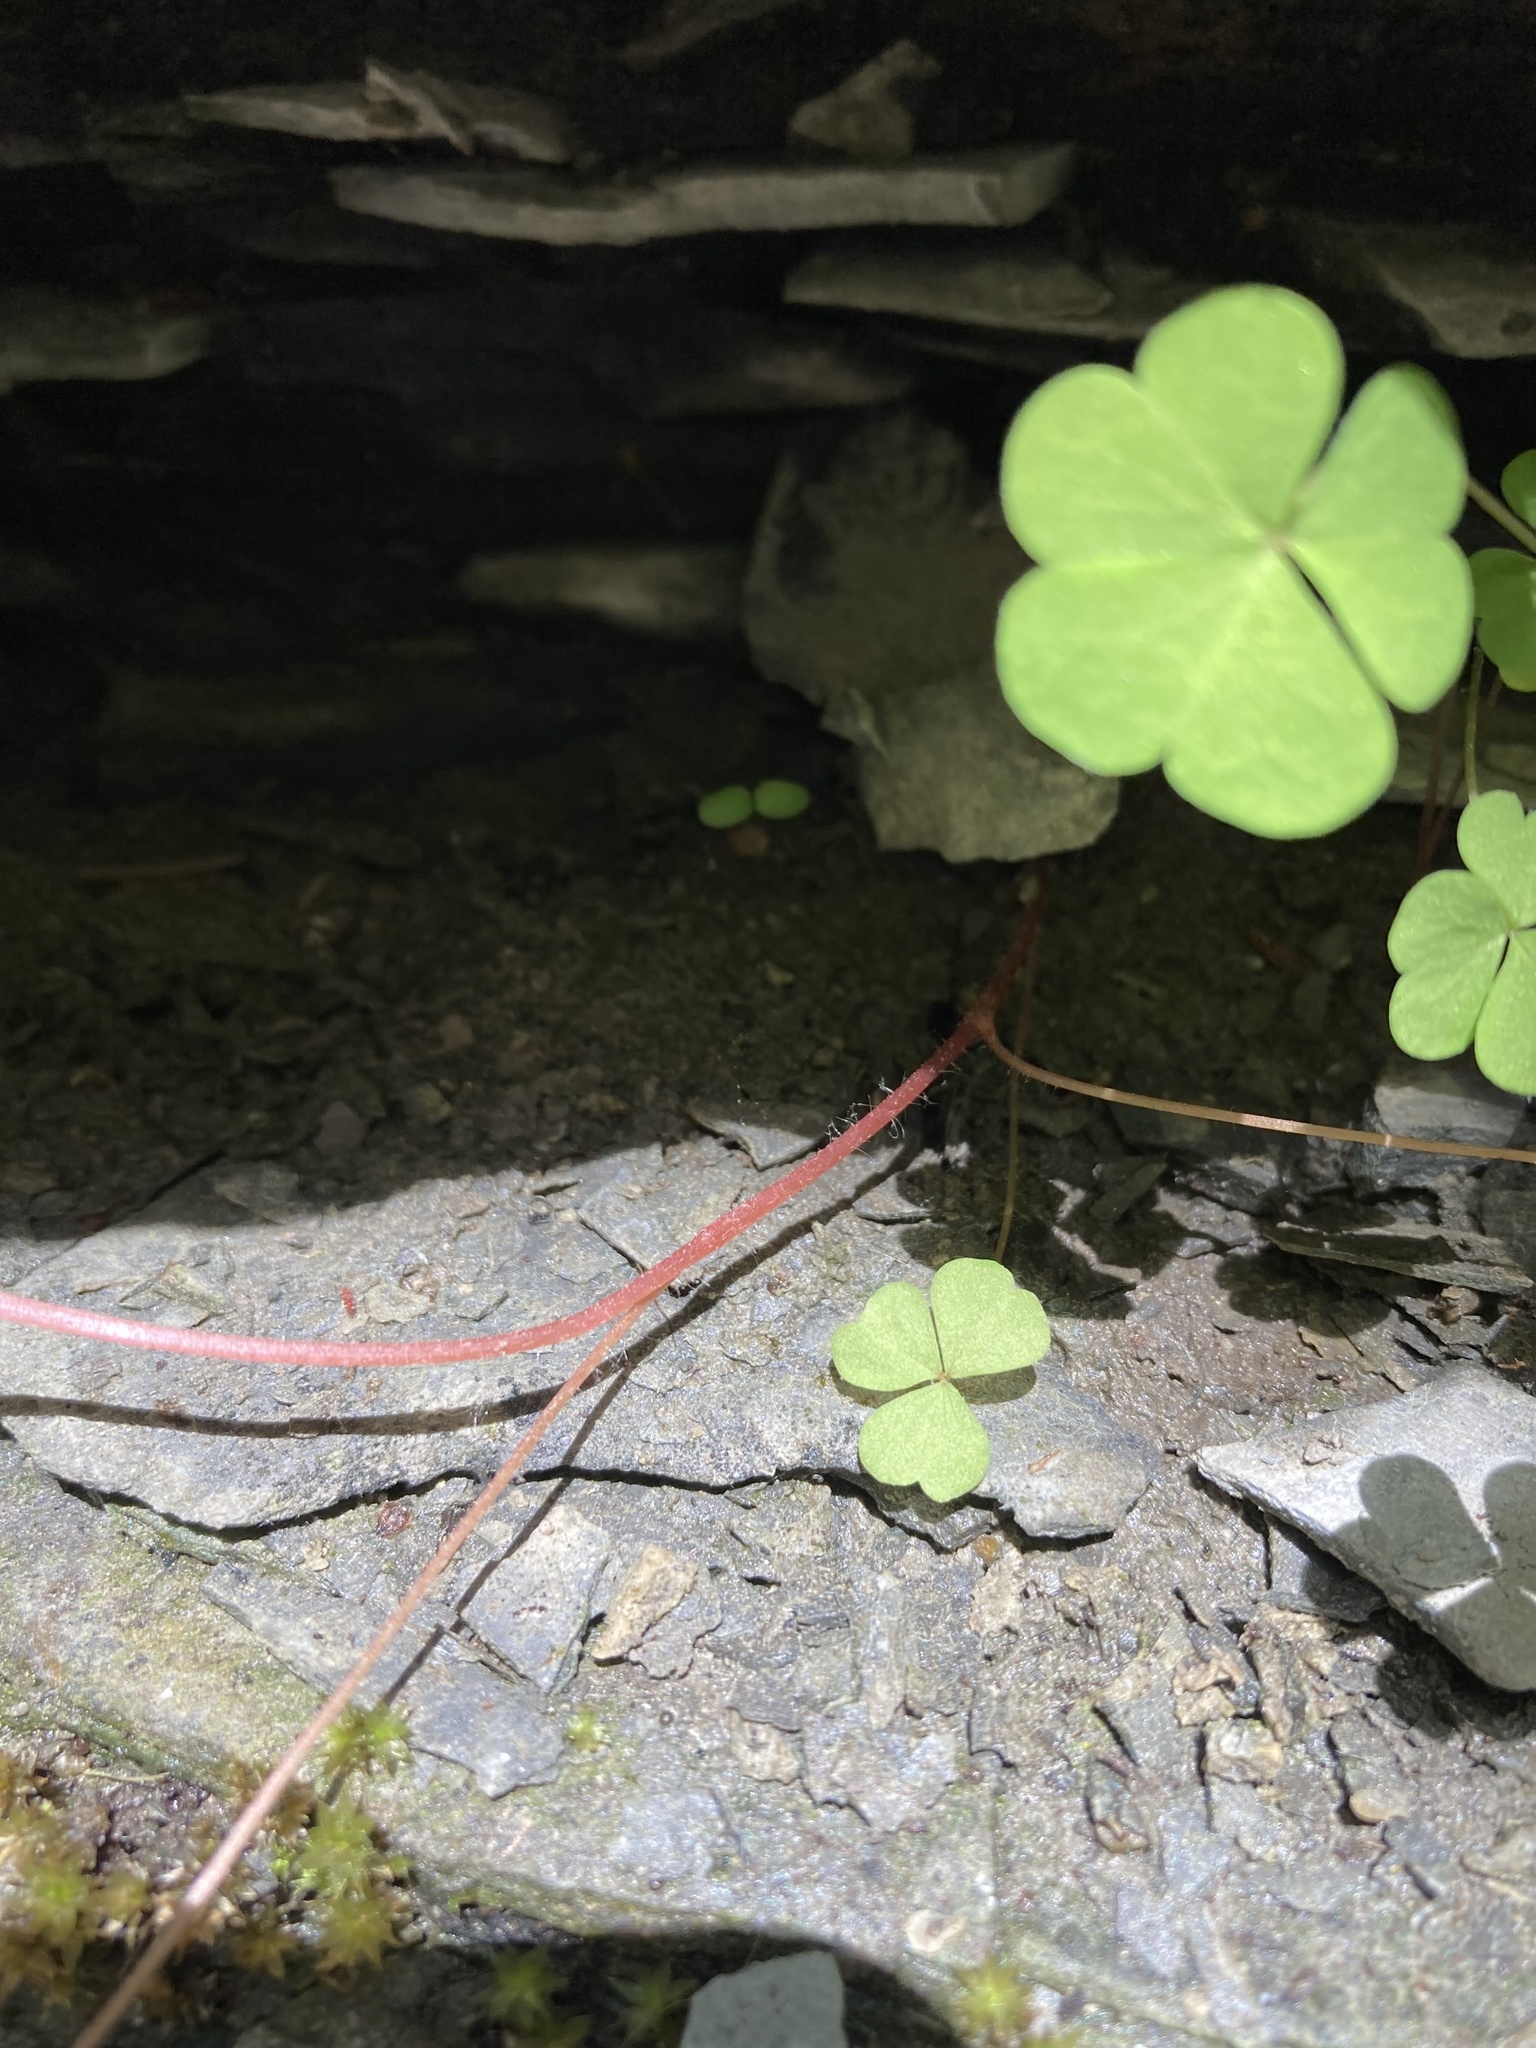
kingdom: Plantae
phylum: Tracheophyta
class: Magnoliopsida
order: Oxalidales
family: Oxalidaceae
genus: Oxalis
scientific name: Oxalis stricta
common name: Upright yellow-sorrel
